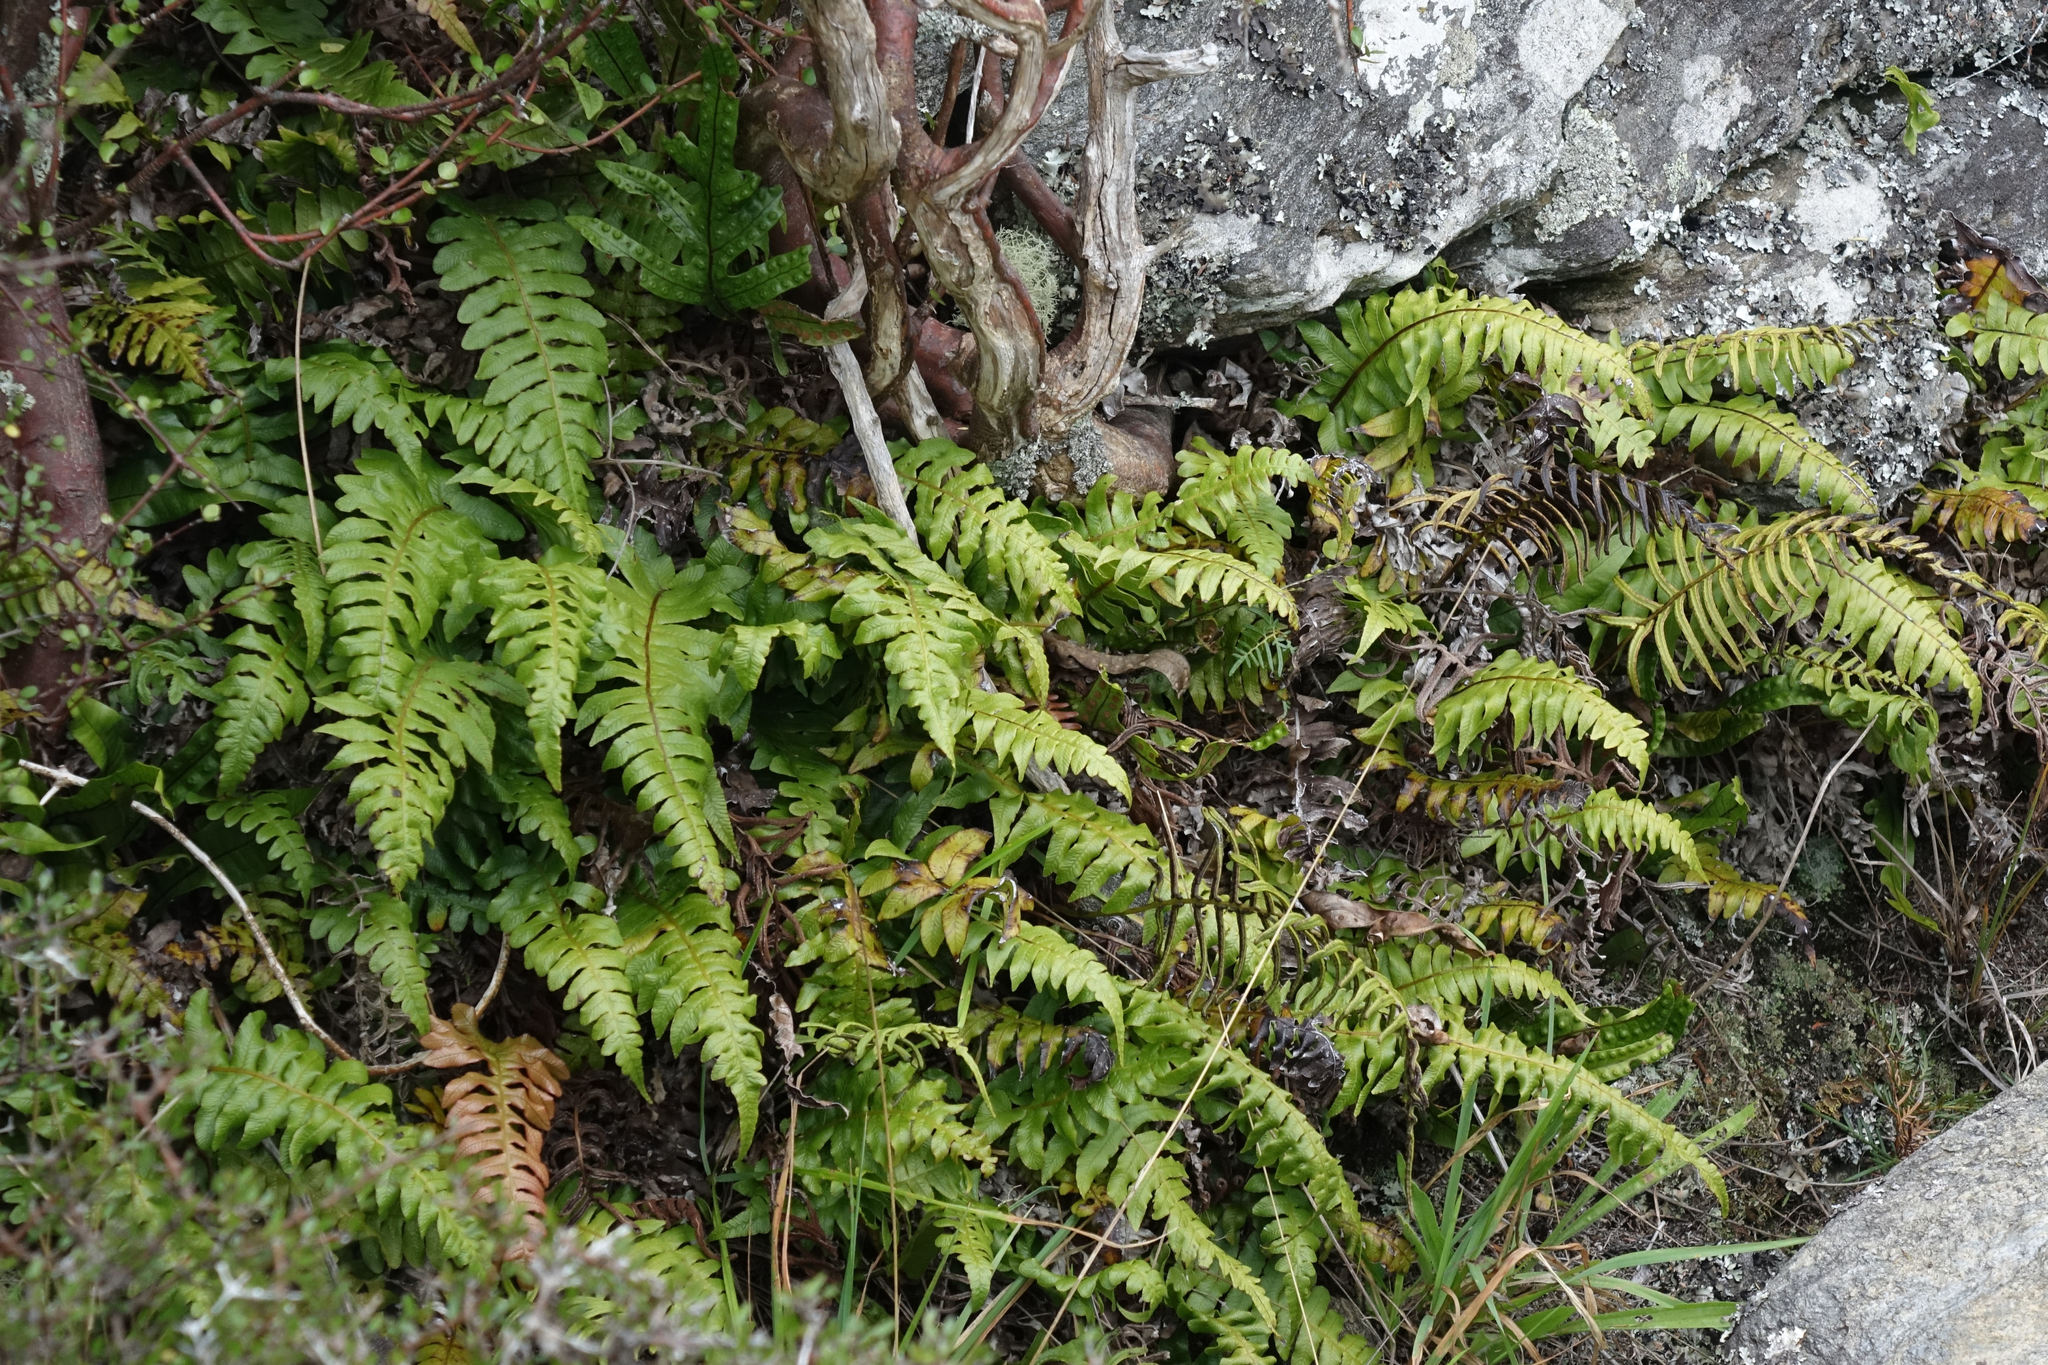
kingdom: Plantae
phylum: Tracheophyta
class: Polypodiopsida
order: Polypodiales
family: Blechnaceae
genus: Cranfillia
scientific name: Cranfillia deltoides
